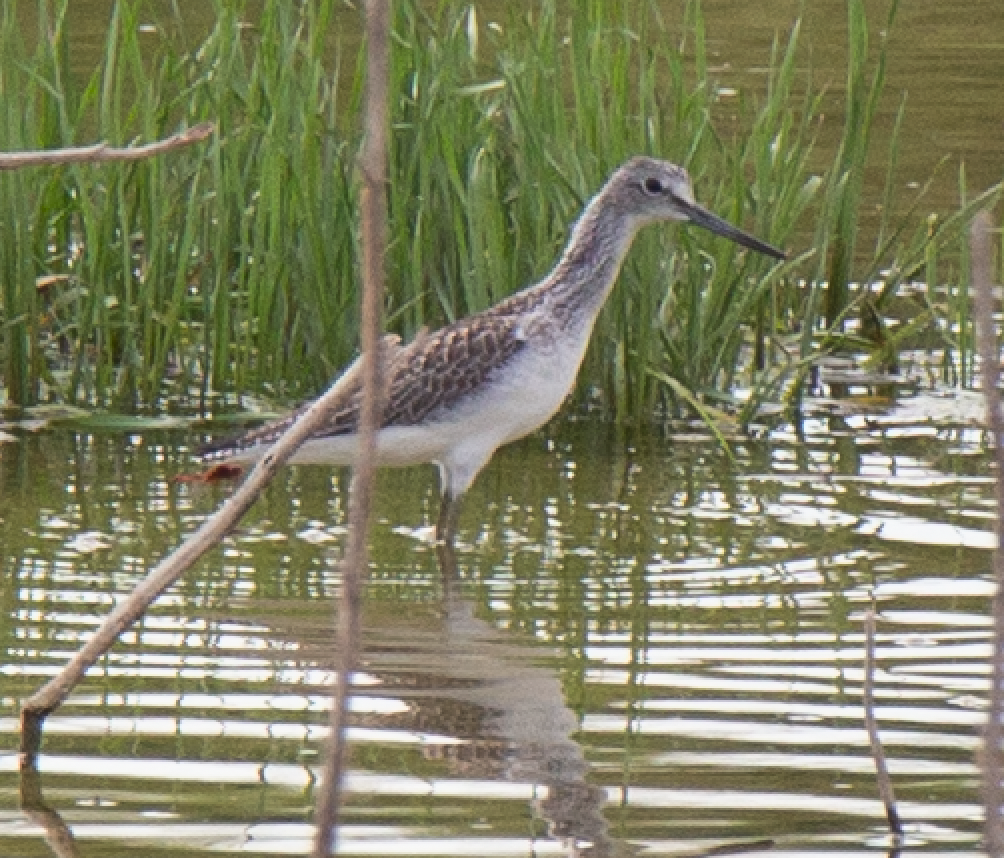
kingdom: Animalia
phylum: Chordata
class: Aves
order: Charadriiformes
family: Scolopacidae
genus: Tringa
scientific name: Tringa nebularia
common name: Common greenshank
